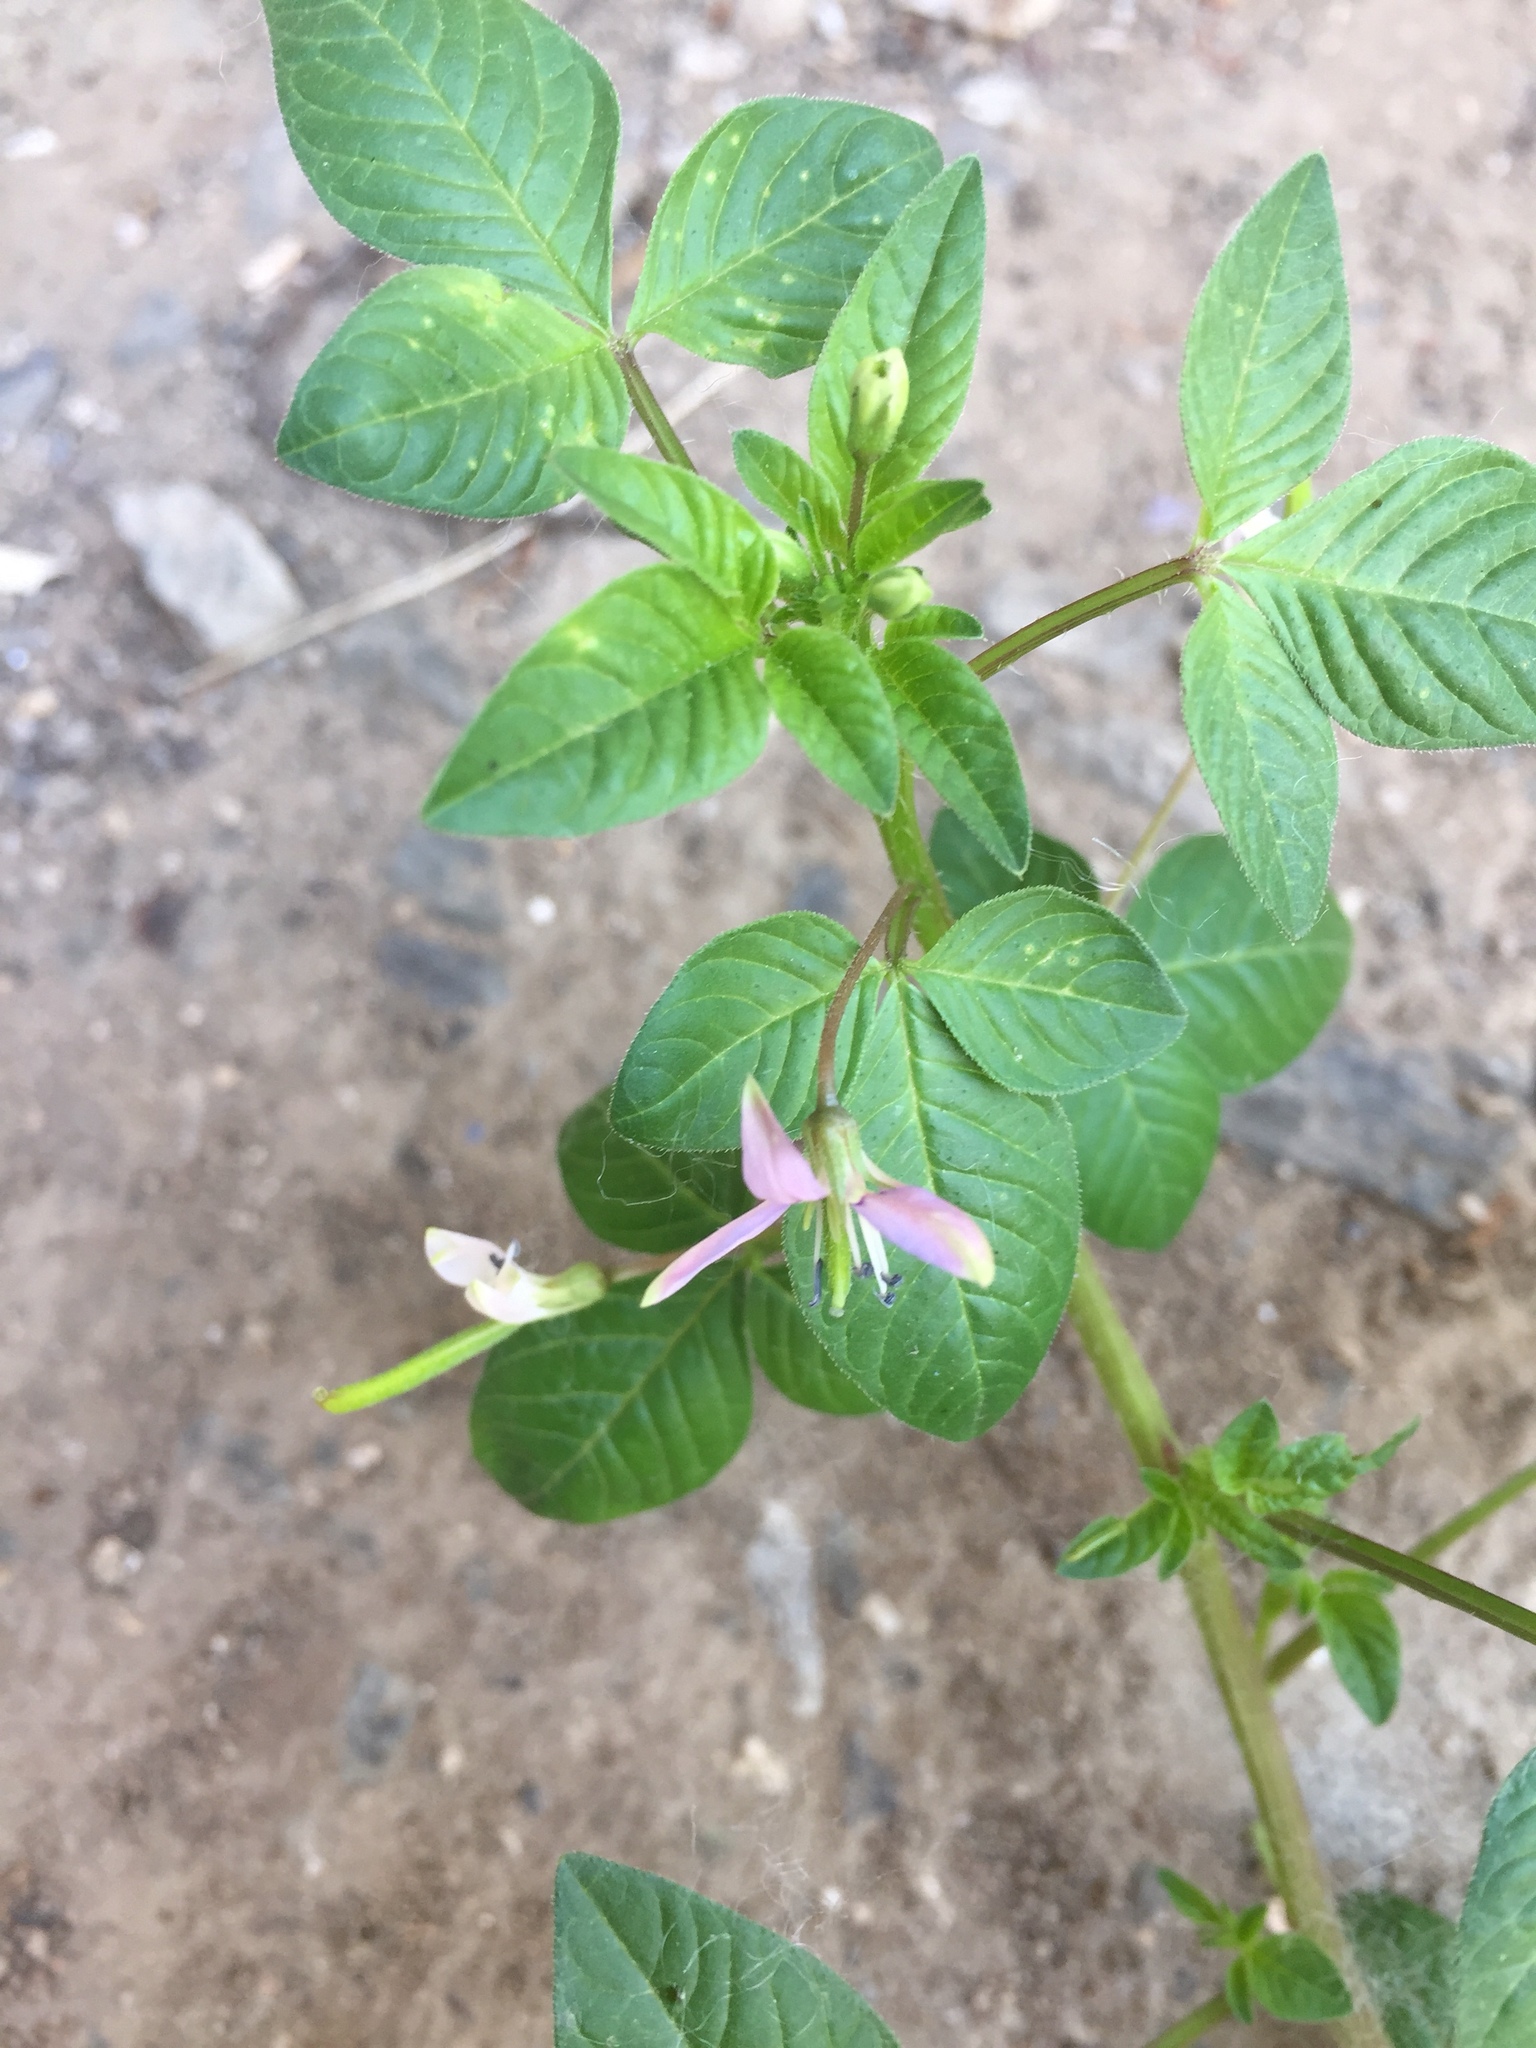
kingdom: Plantae
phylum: Tracheophyta
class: Magnoliopsida
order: Brassicales
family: Cleomaceae
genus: Sieruela
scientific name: Sieruela rutidosperma
